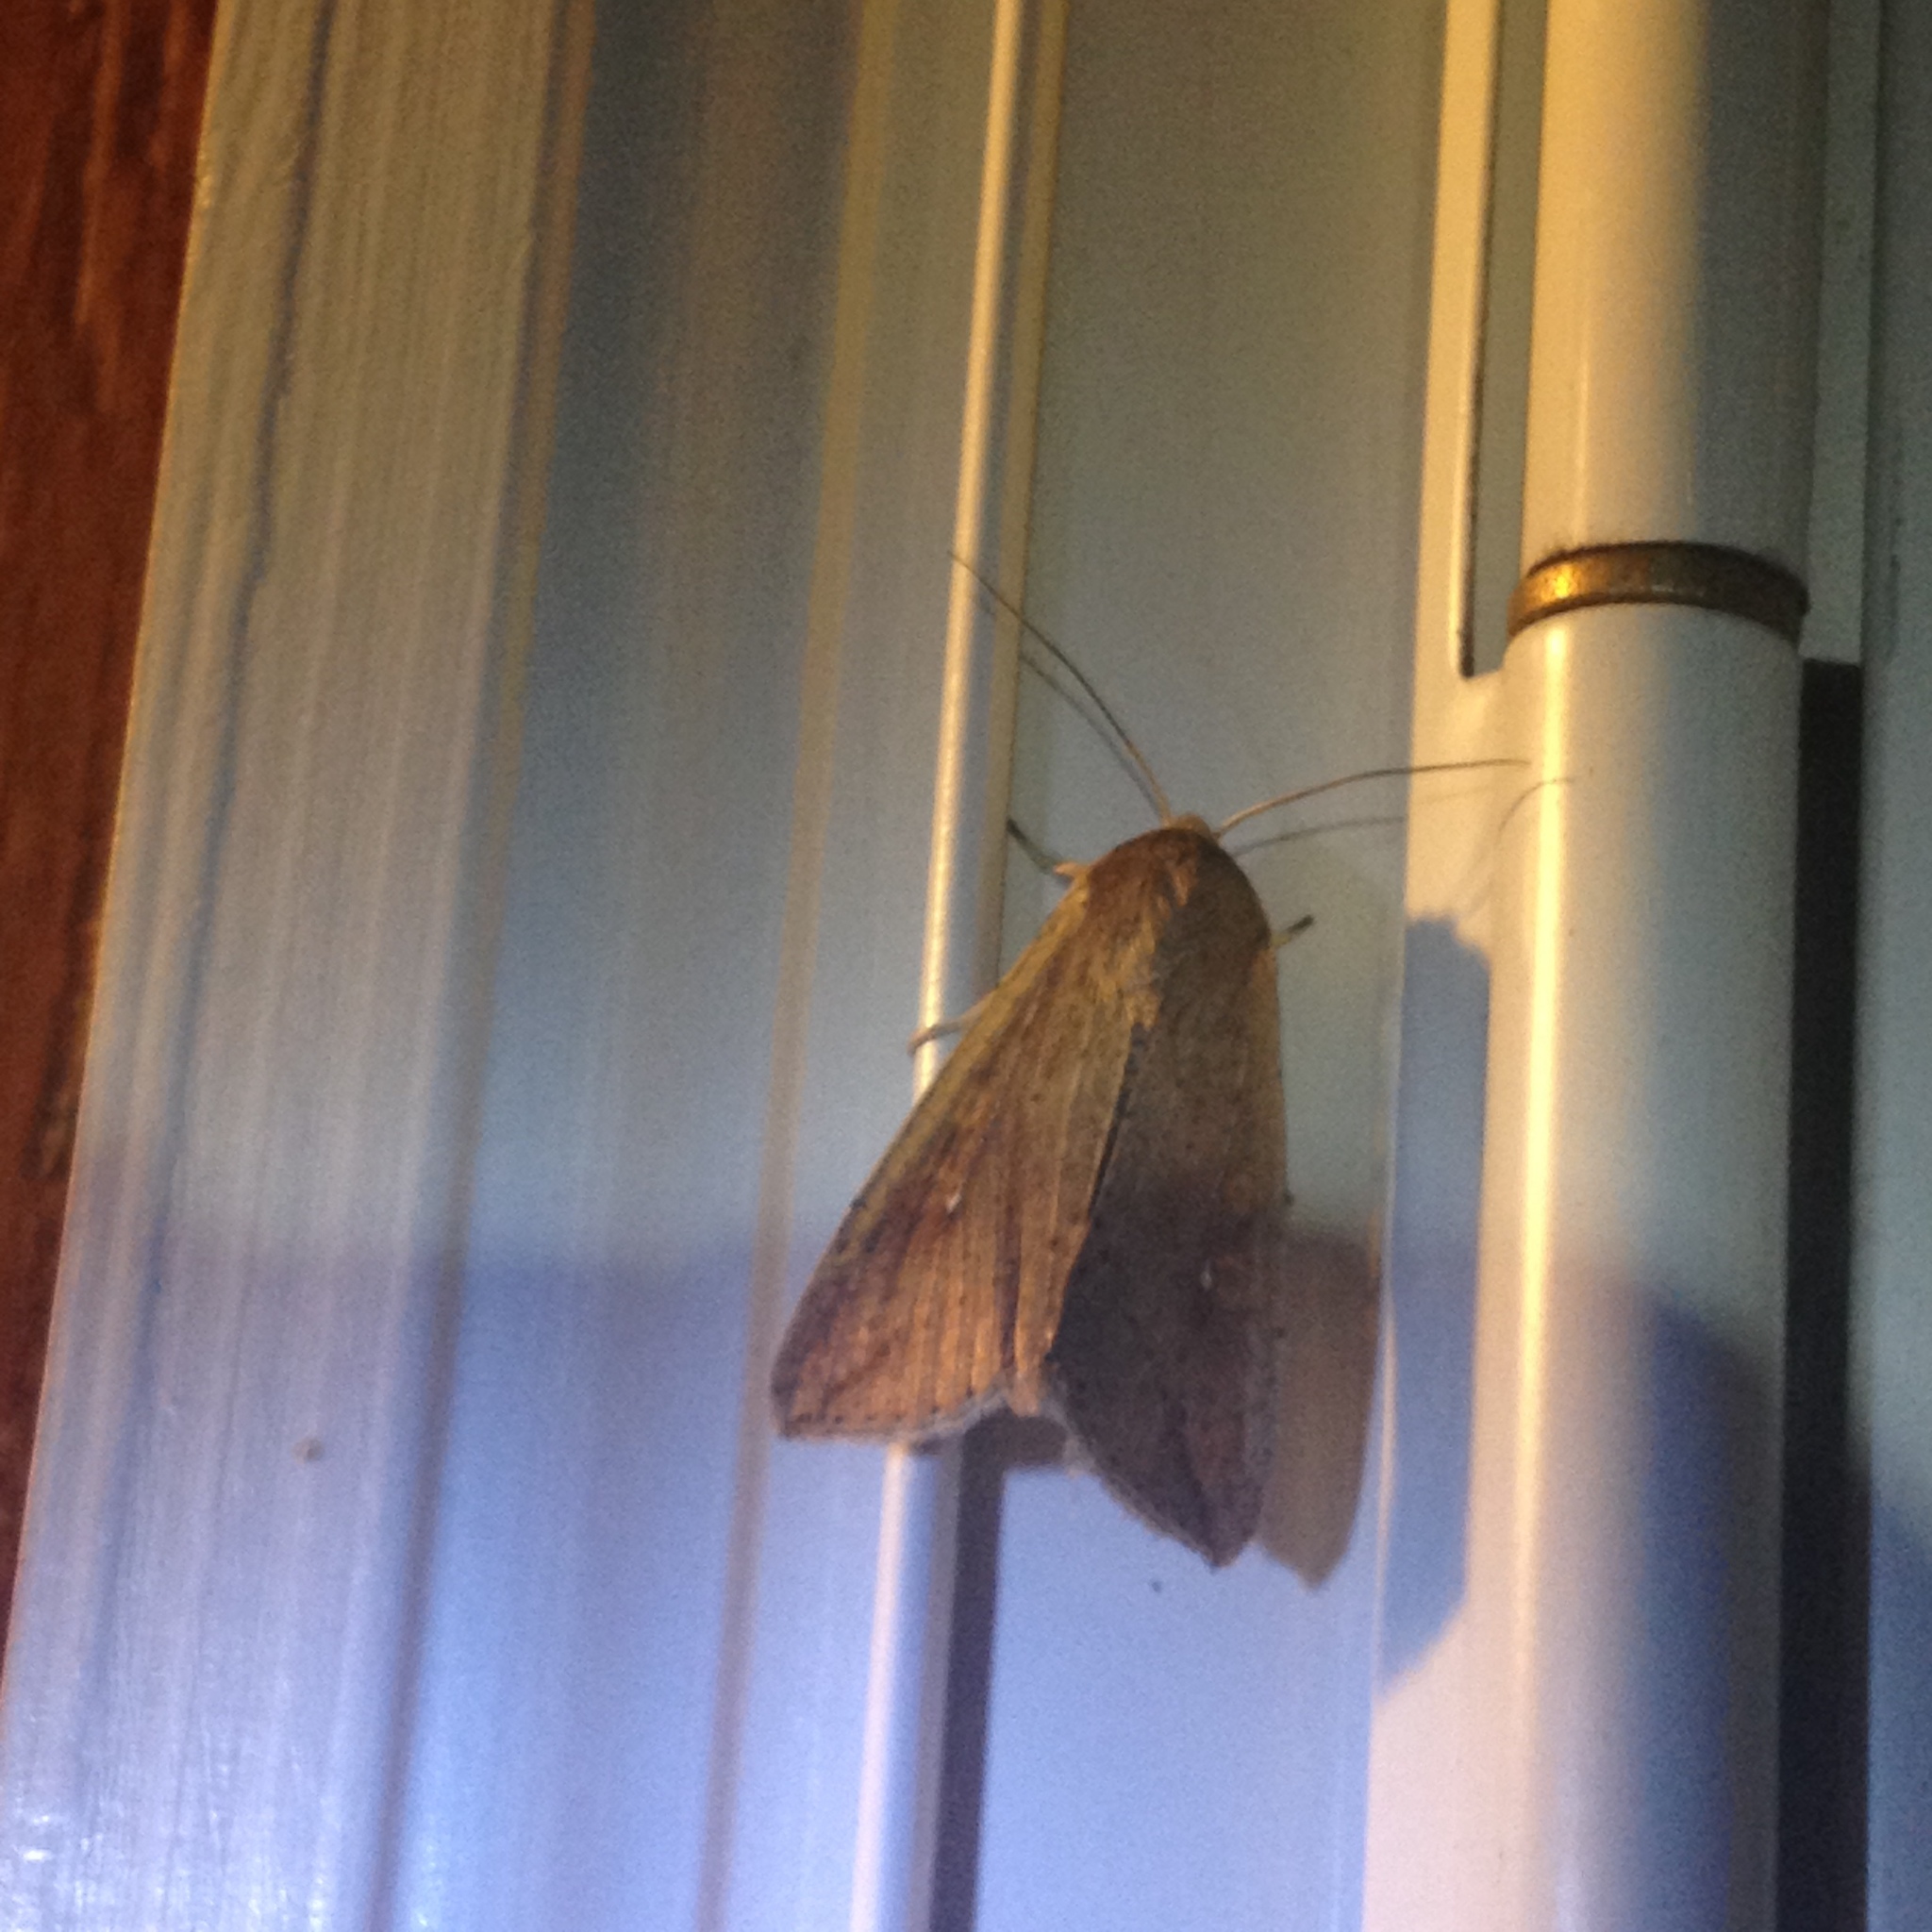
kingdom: Animalia
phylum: Arthropoda
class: Insecta
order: Lepidoptera
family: Noctuidae
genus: Mythimna
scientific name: Mythimna unipuncta
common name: White-speck
